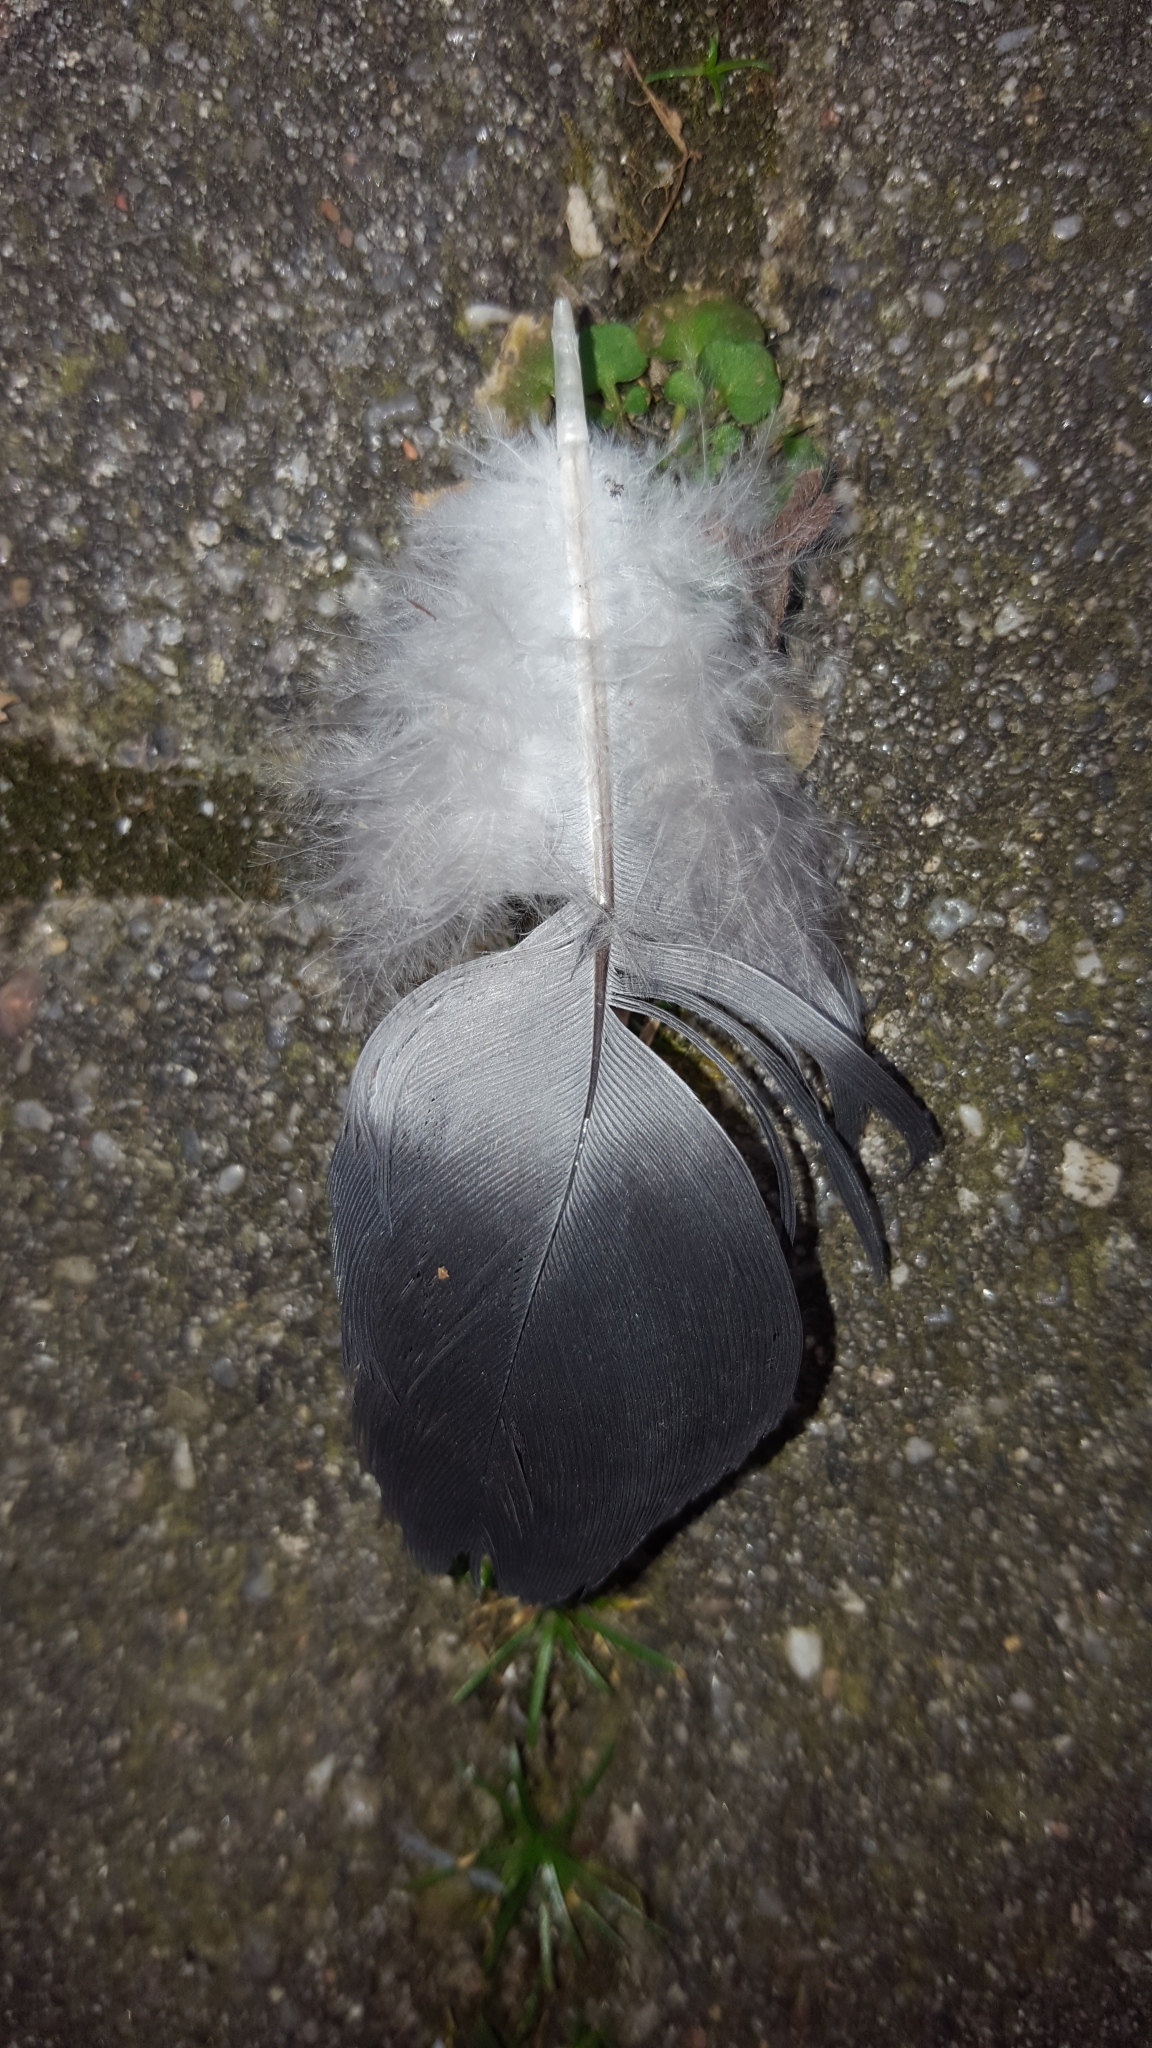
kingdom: Animalia
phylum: Chordata
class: Aves
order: Columbiformes
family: Columbidae
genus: Columba
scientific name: Columba livia
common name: Rock pigeon
